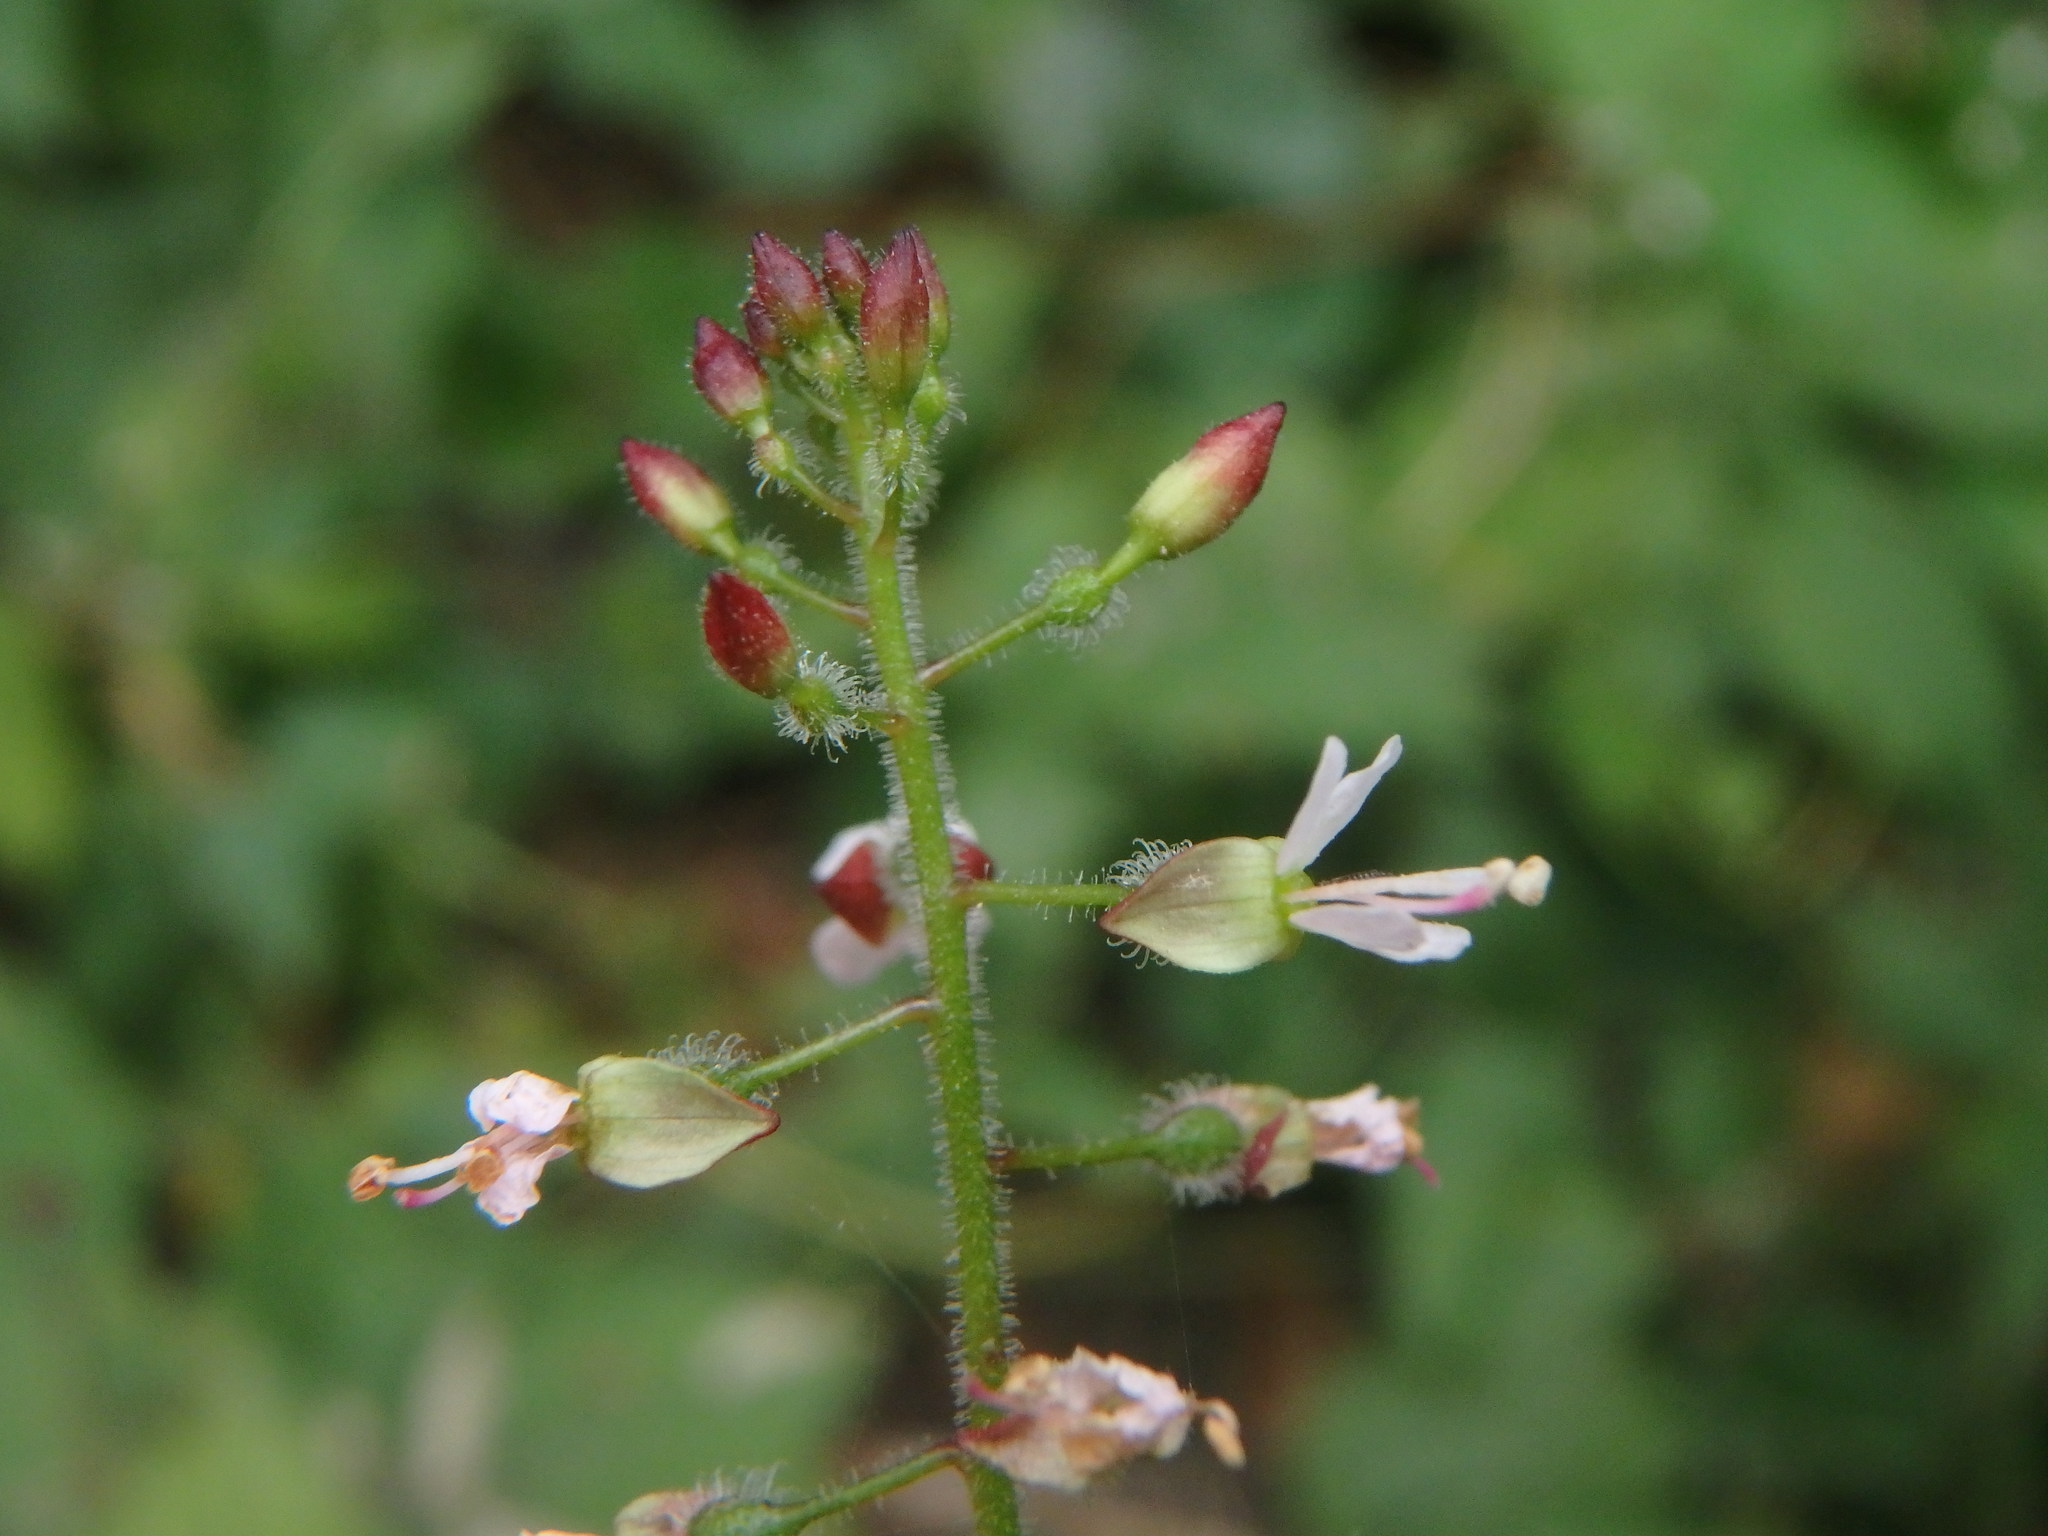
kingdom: Plantae
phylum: Tracheophyta
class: Magnoliopsida
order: Myrtales
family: Onagraceae
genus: Circaea
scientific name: Circaea lutetiana
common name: Enchanter's-nightshade
